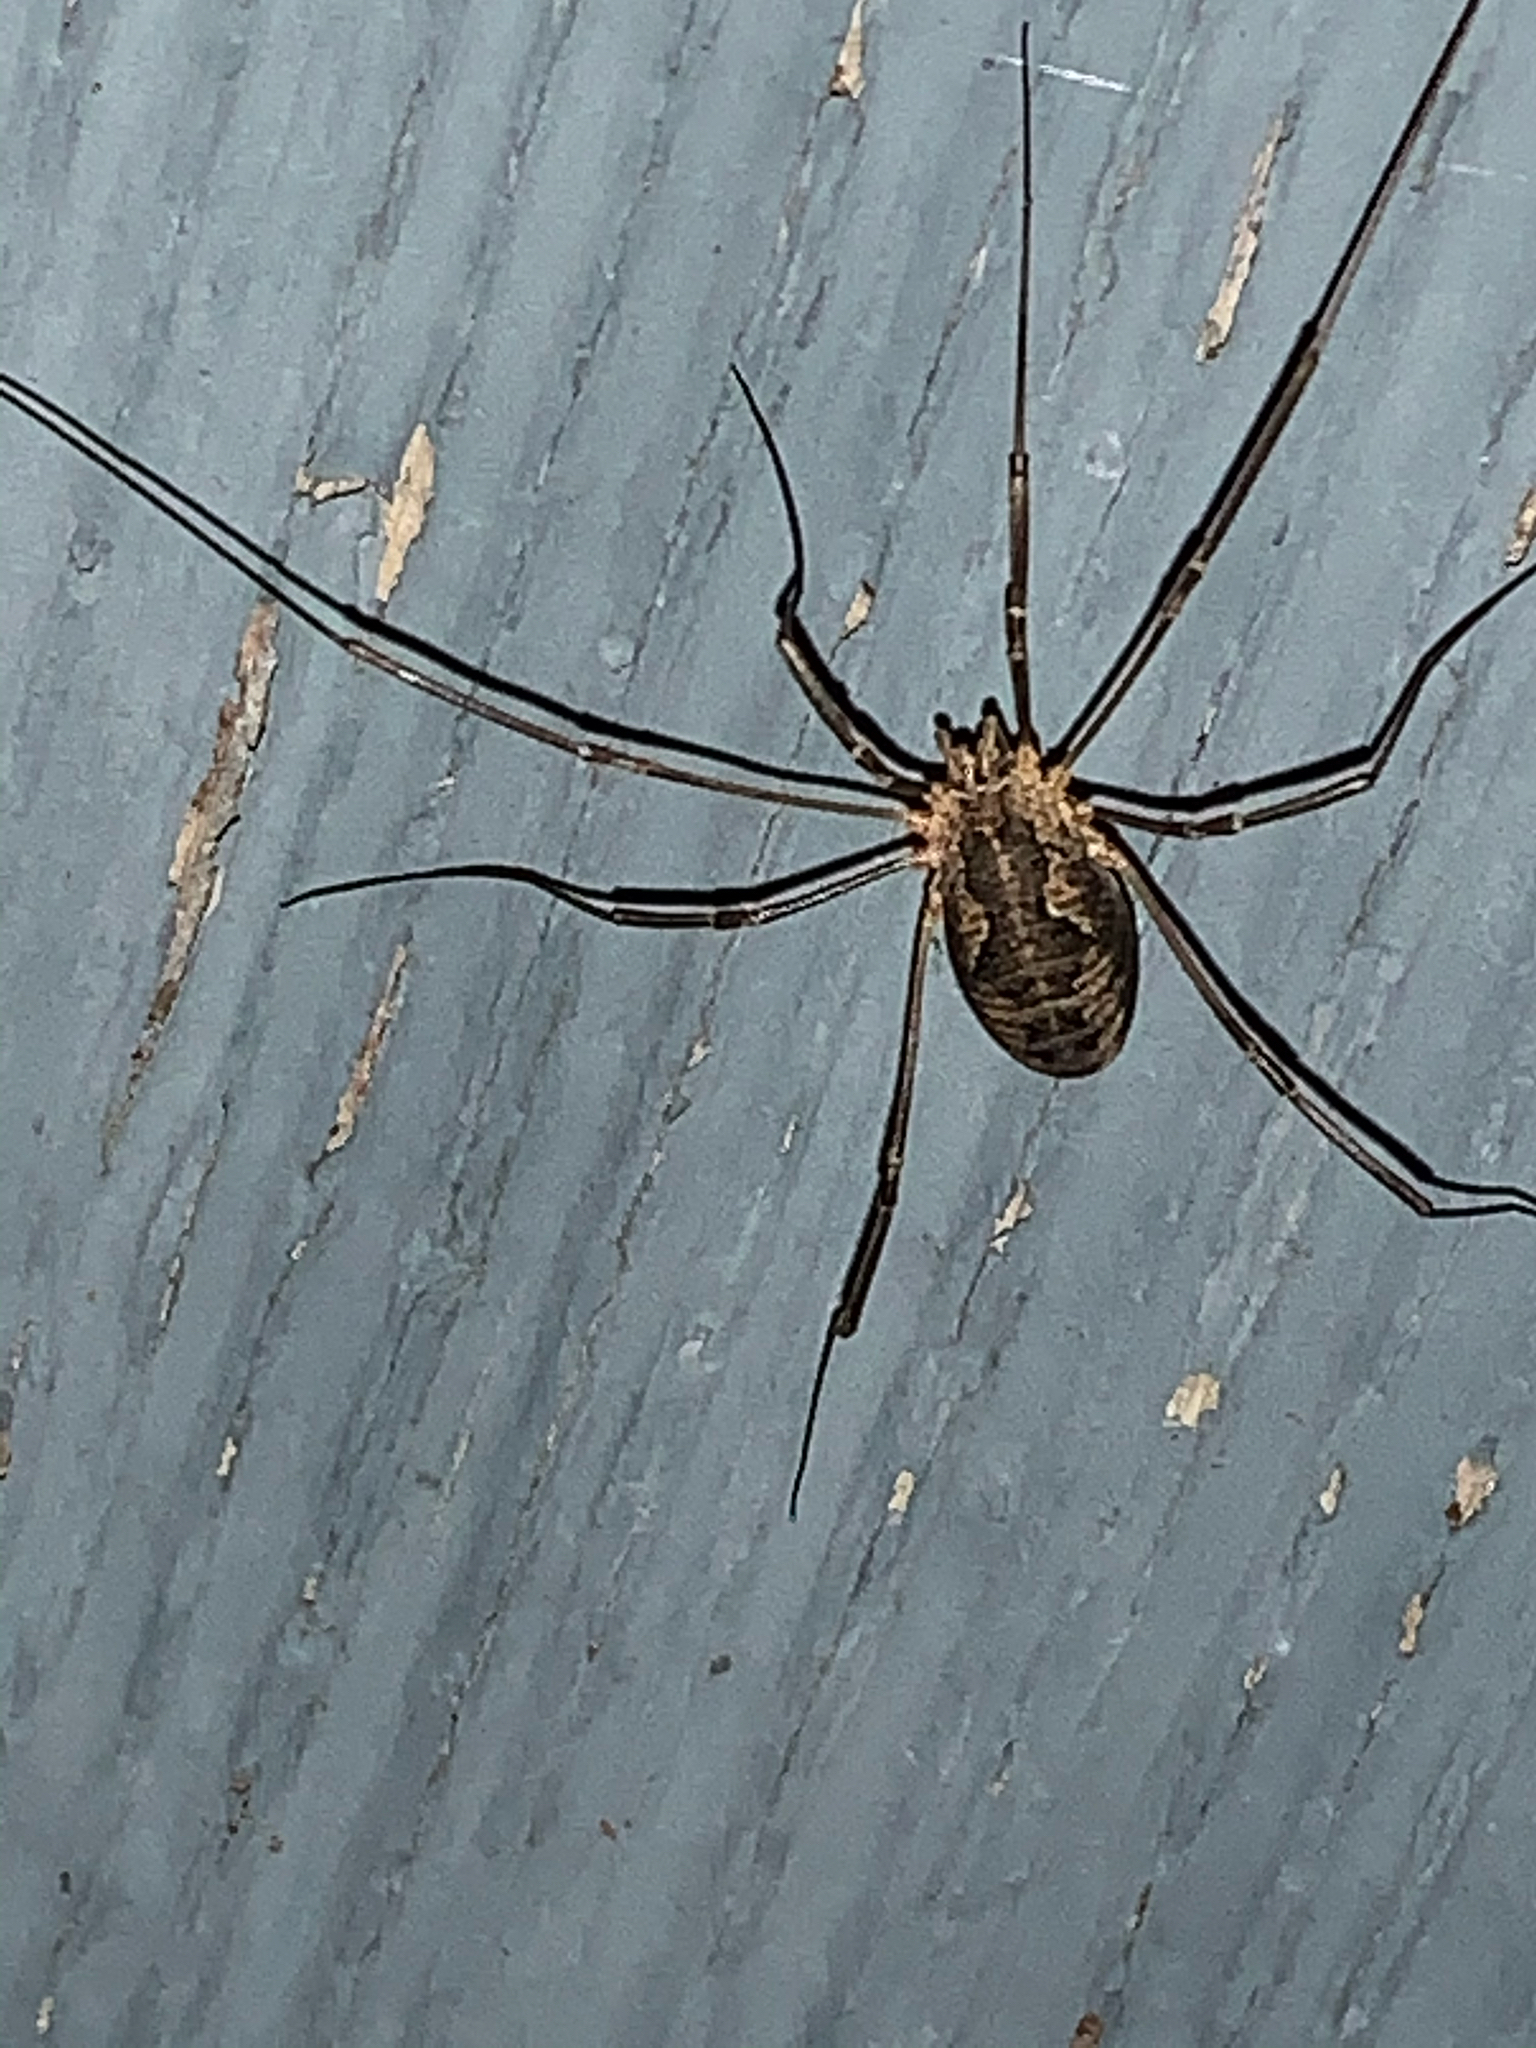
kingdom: Animalia
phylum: Arthropoda
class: Arachnida
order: Opiliones
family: Phalangiidae
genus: Phalangium
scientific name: Phalangium opilio
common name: Daddy longleg
